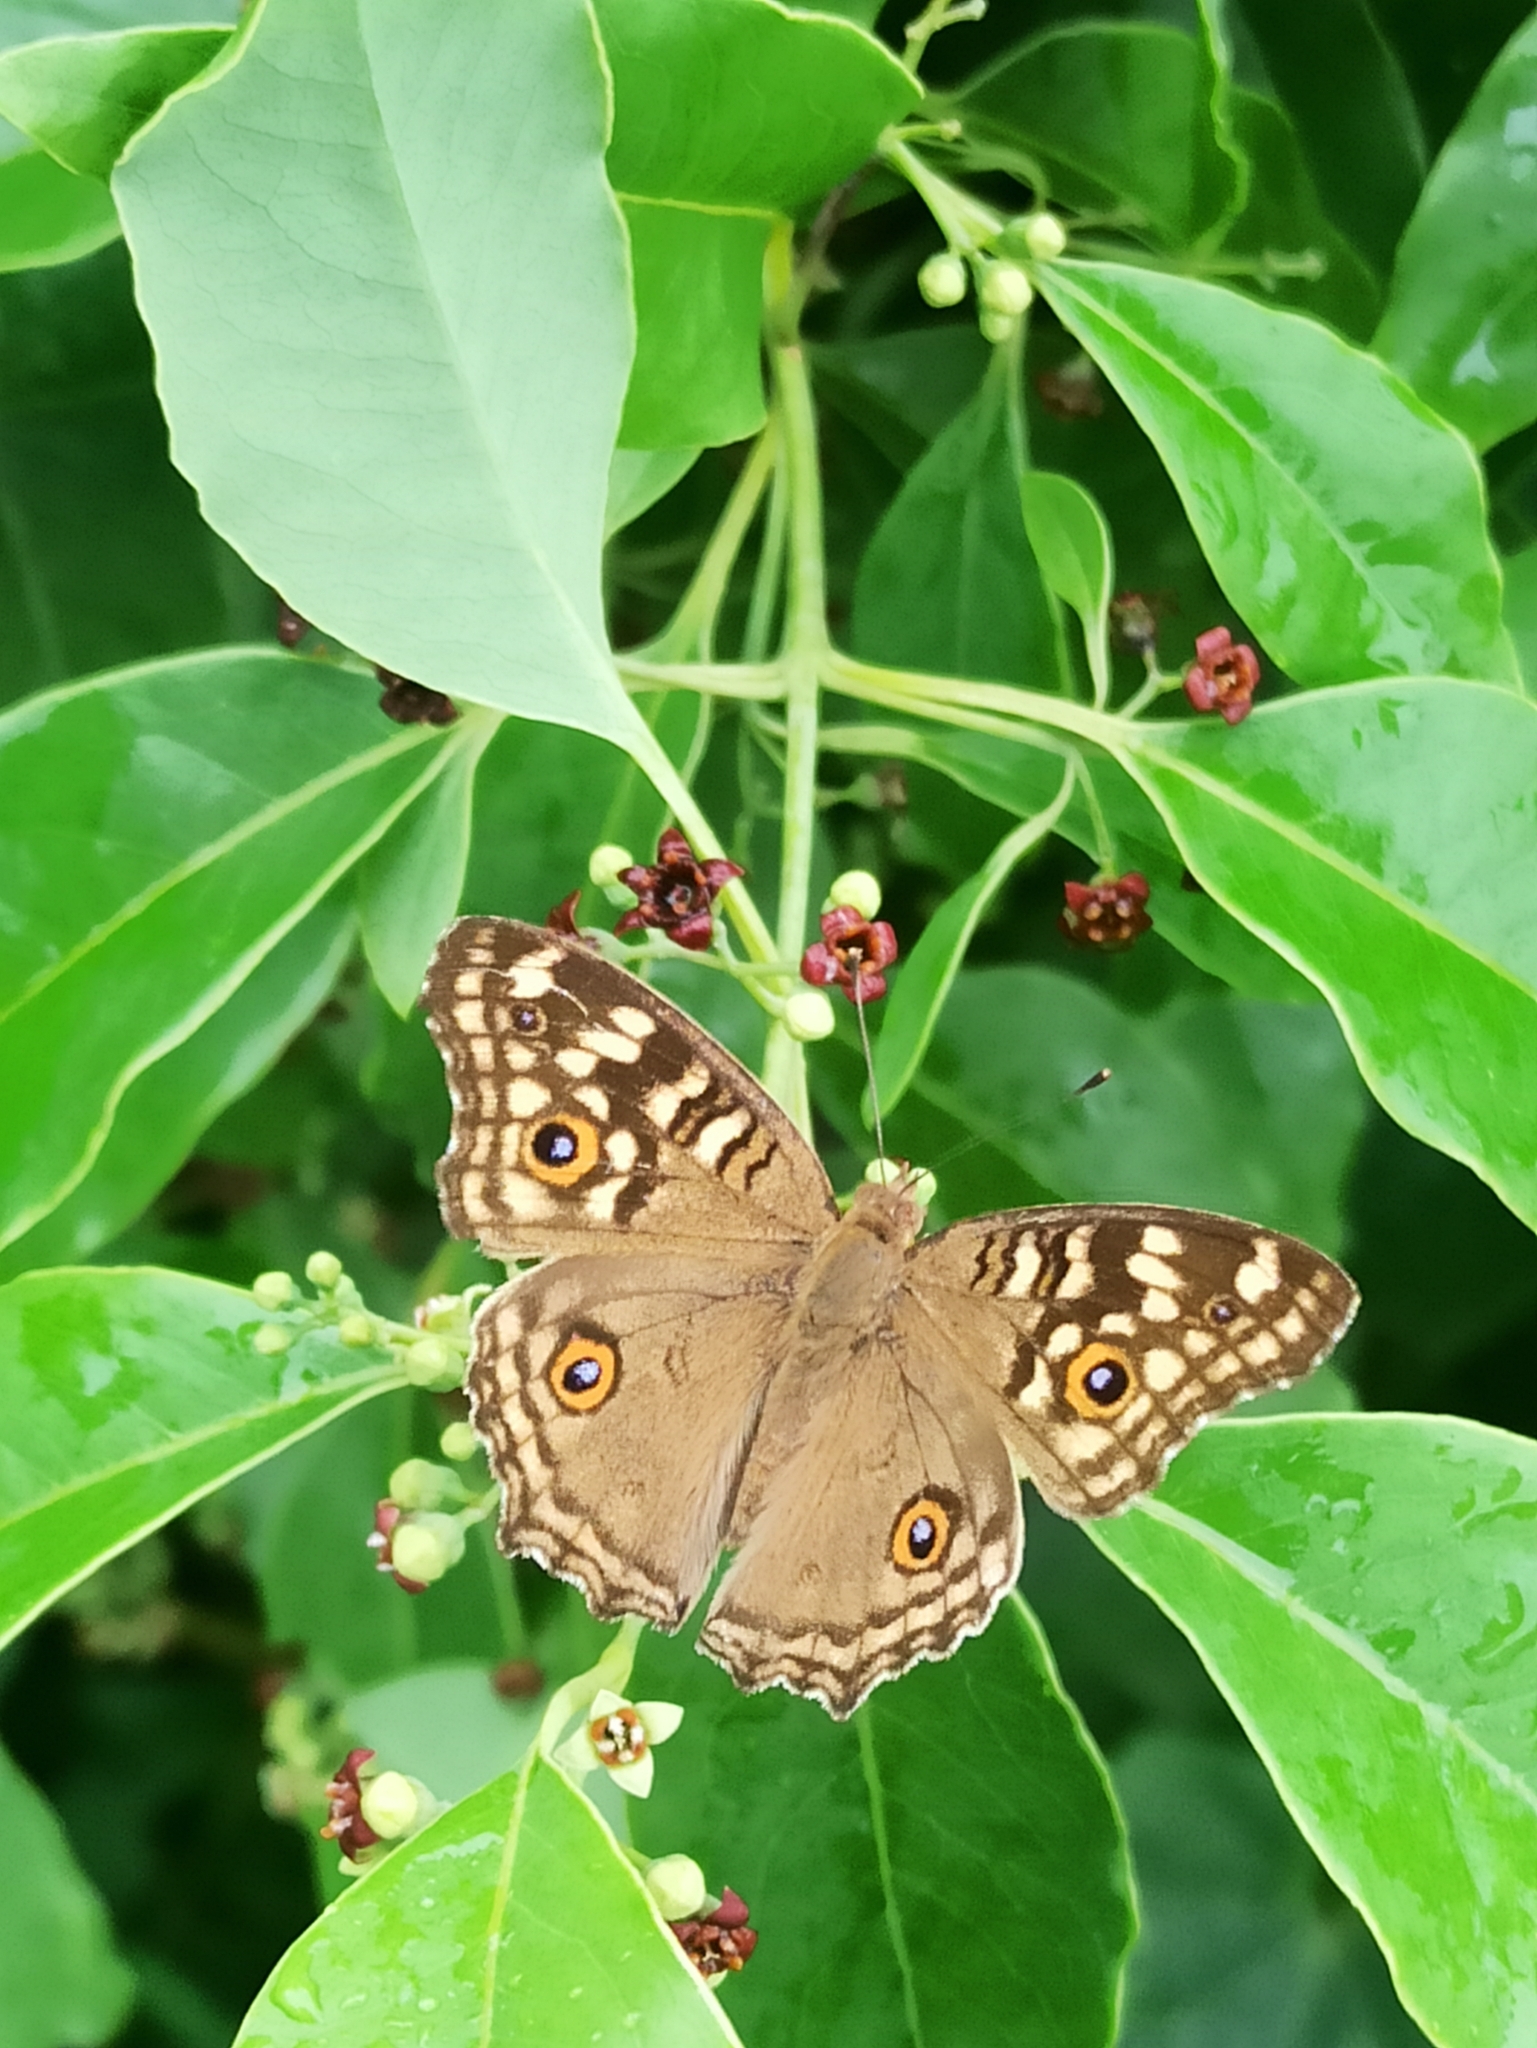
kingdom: Animalia
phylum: Arthropoda
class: Insecta
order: Lepidoptera
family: Nymphalidae
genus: Junonia
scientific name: Junonia lemonias
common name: Lemon pansy
